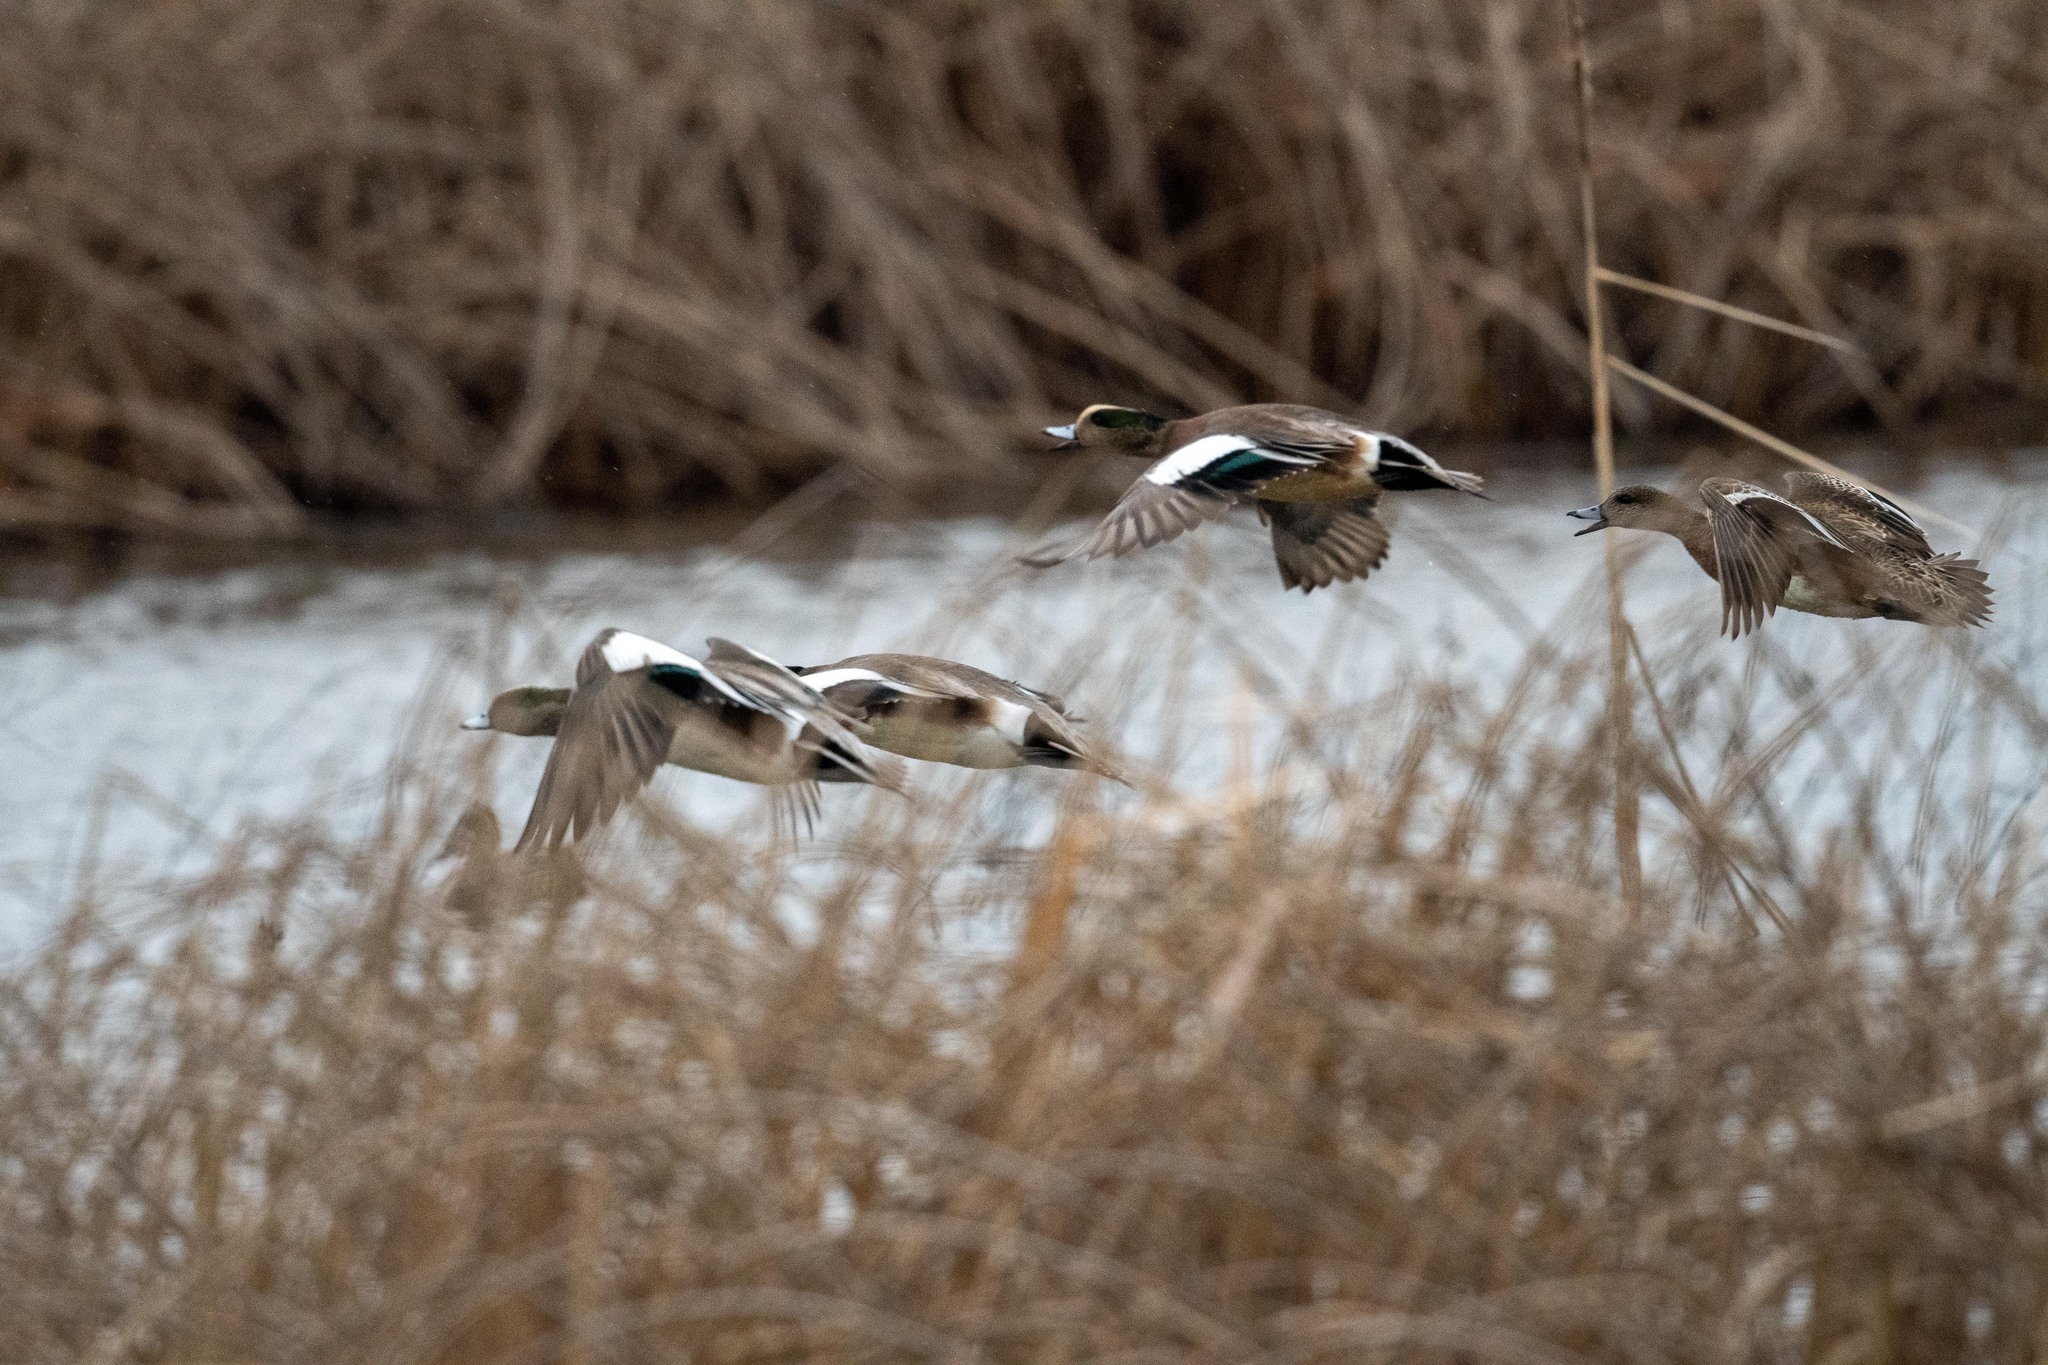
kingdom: Animalia
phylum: Chordata
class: Aves
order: Anseriformes
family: Anatidae
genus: Mareca
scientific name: Mareca americana
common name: American wigeon
